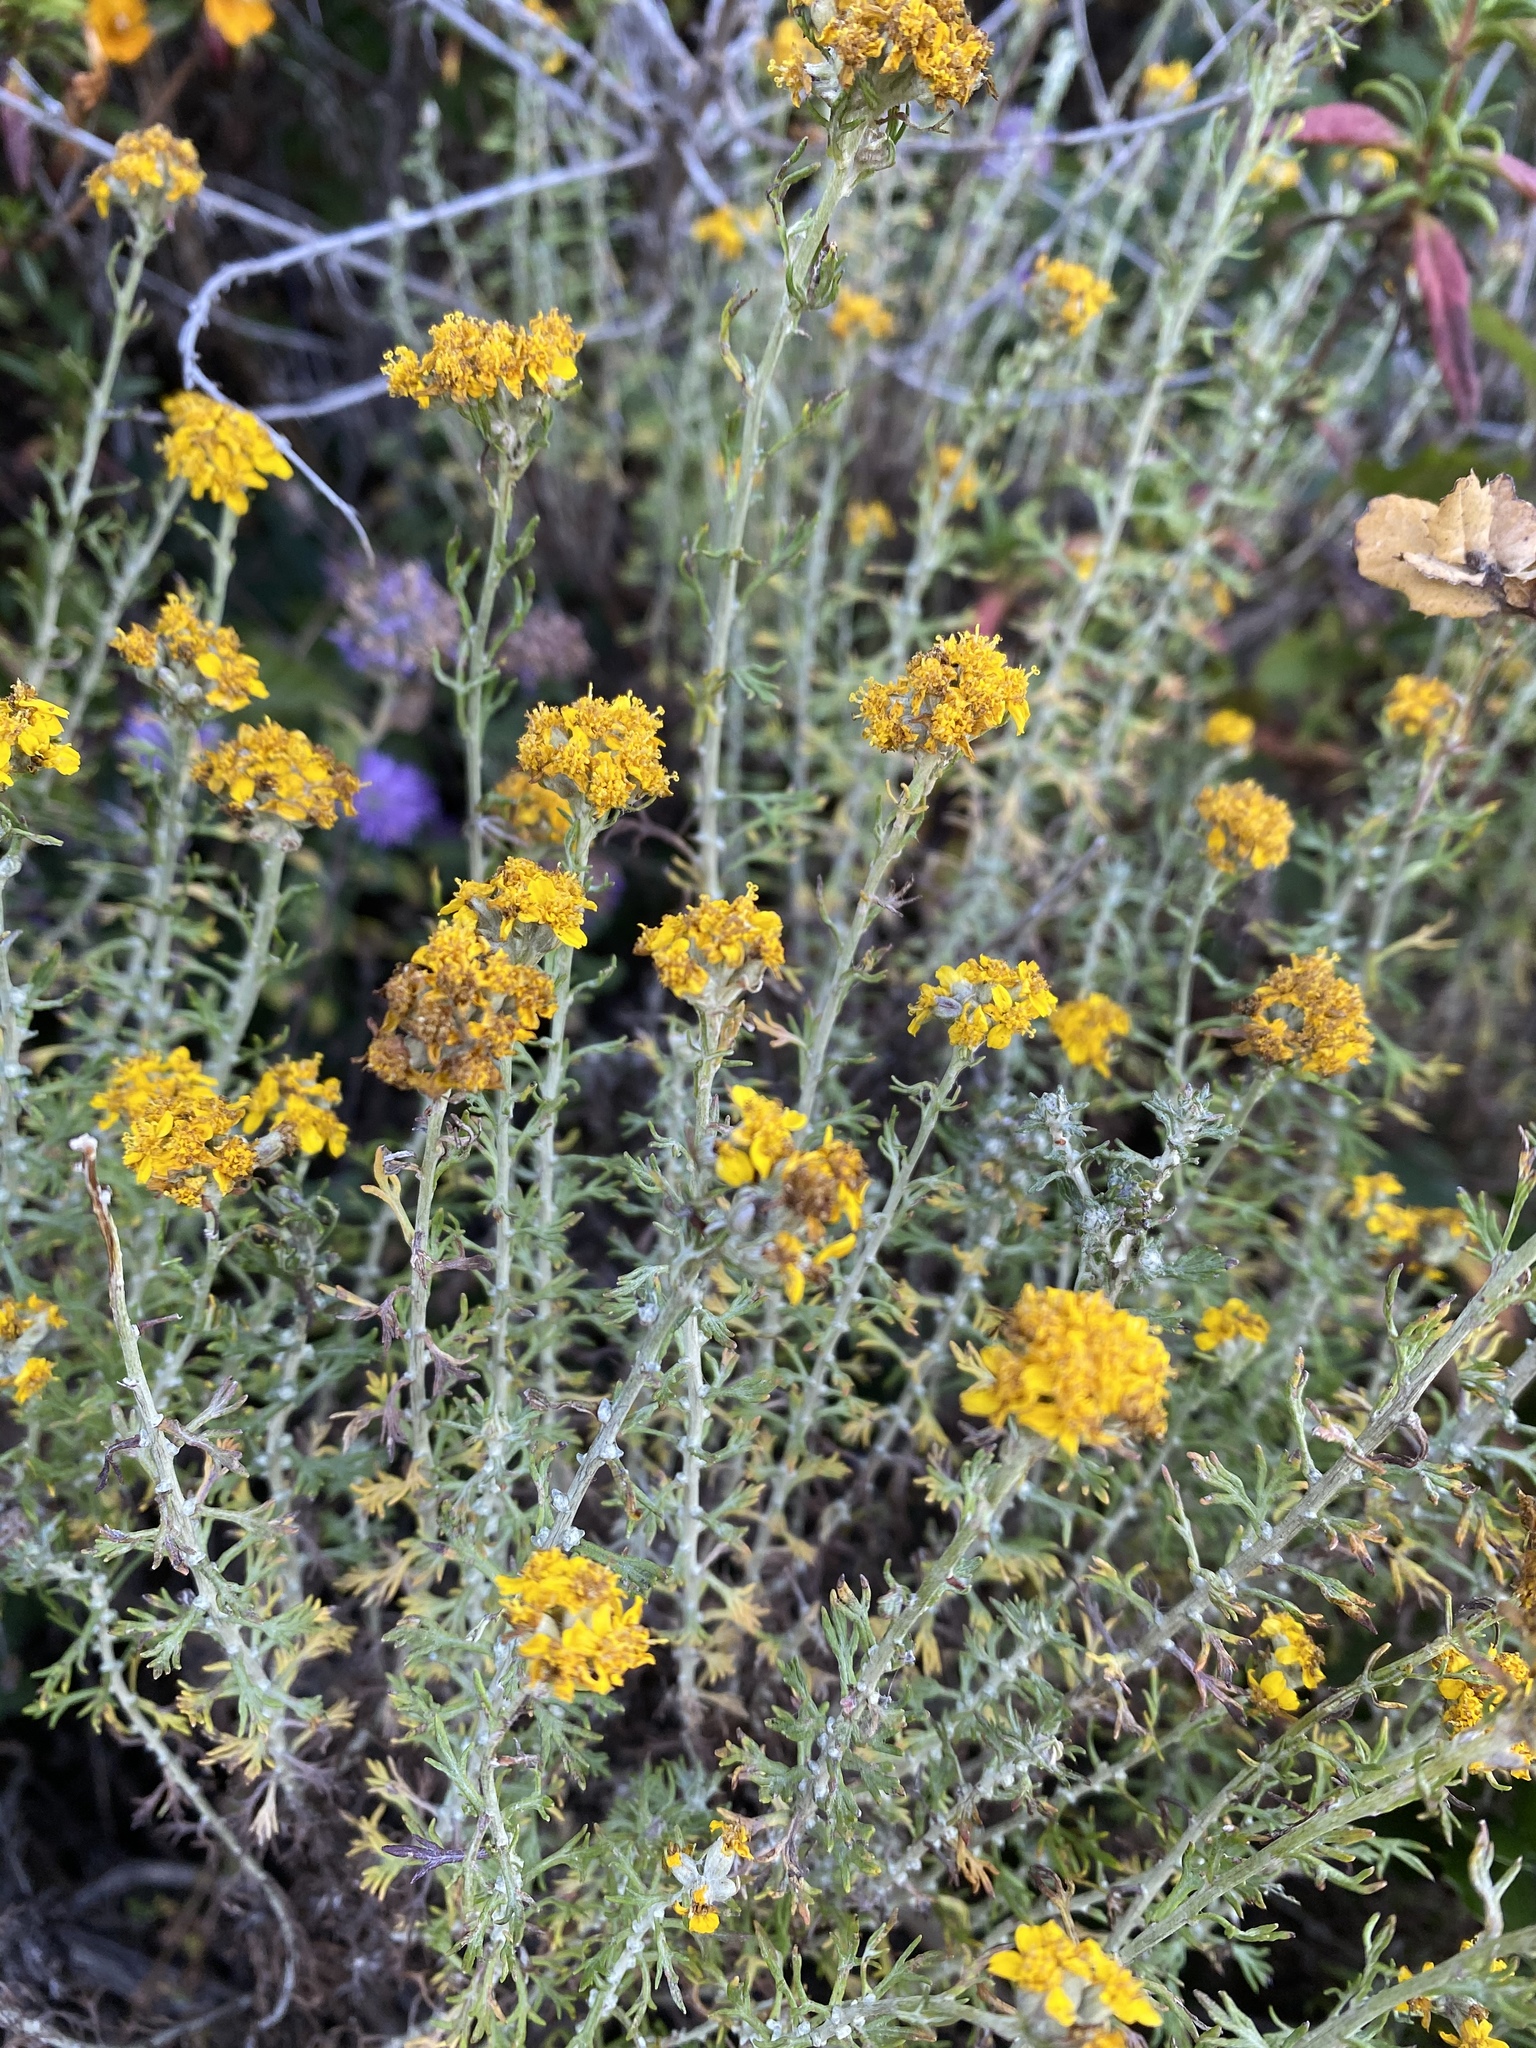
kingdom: Plantae
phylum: Tracheophyta
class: Magnoliopsida
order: Asterales
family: Asteraceae
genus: Eriophyllum
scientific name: Eriophyllum confertiflorum
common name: Golden-yarrow
